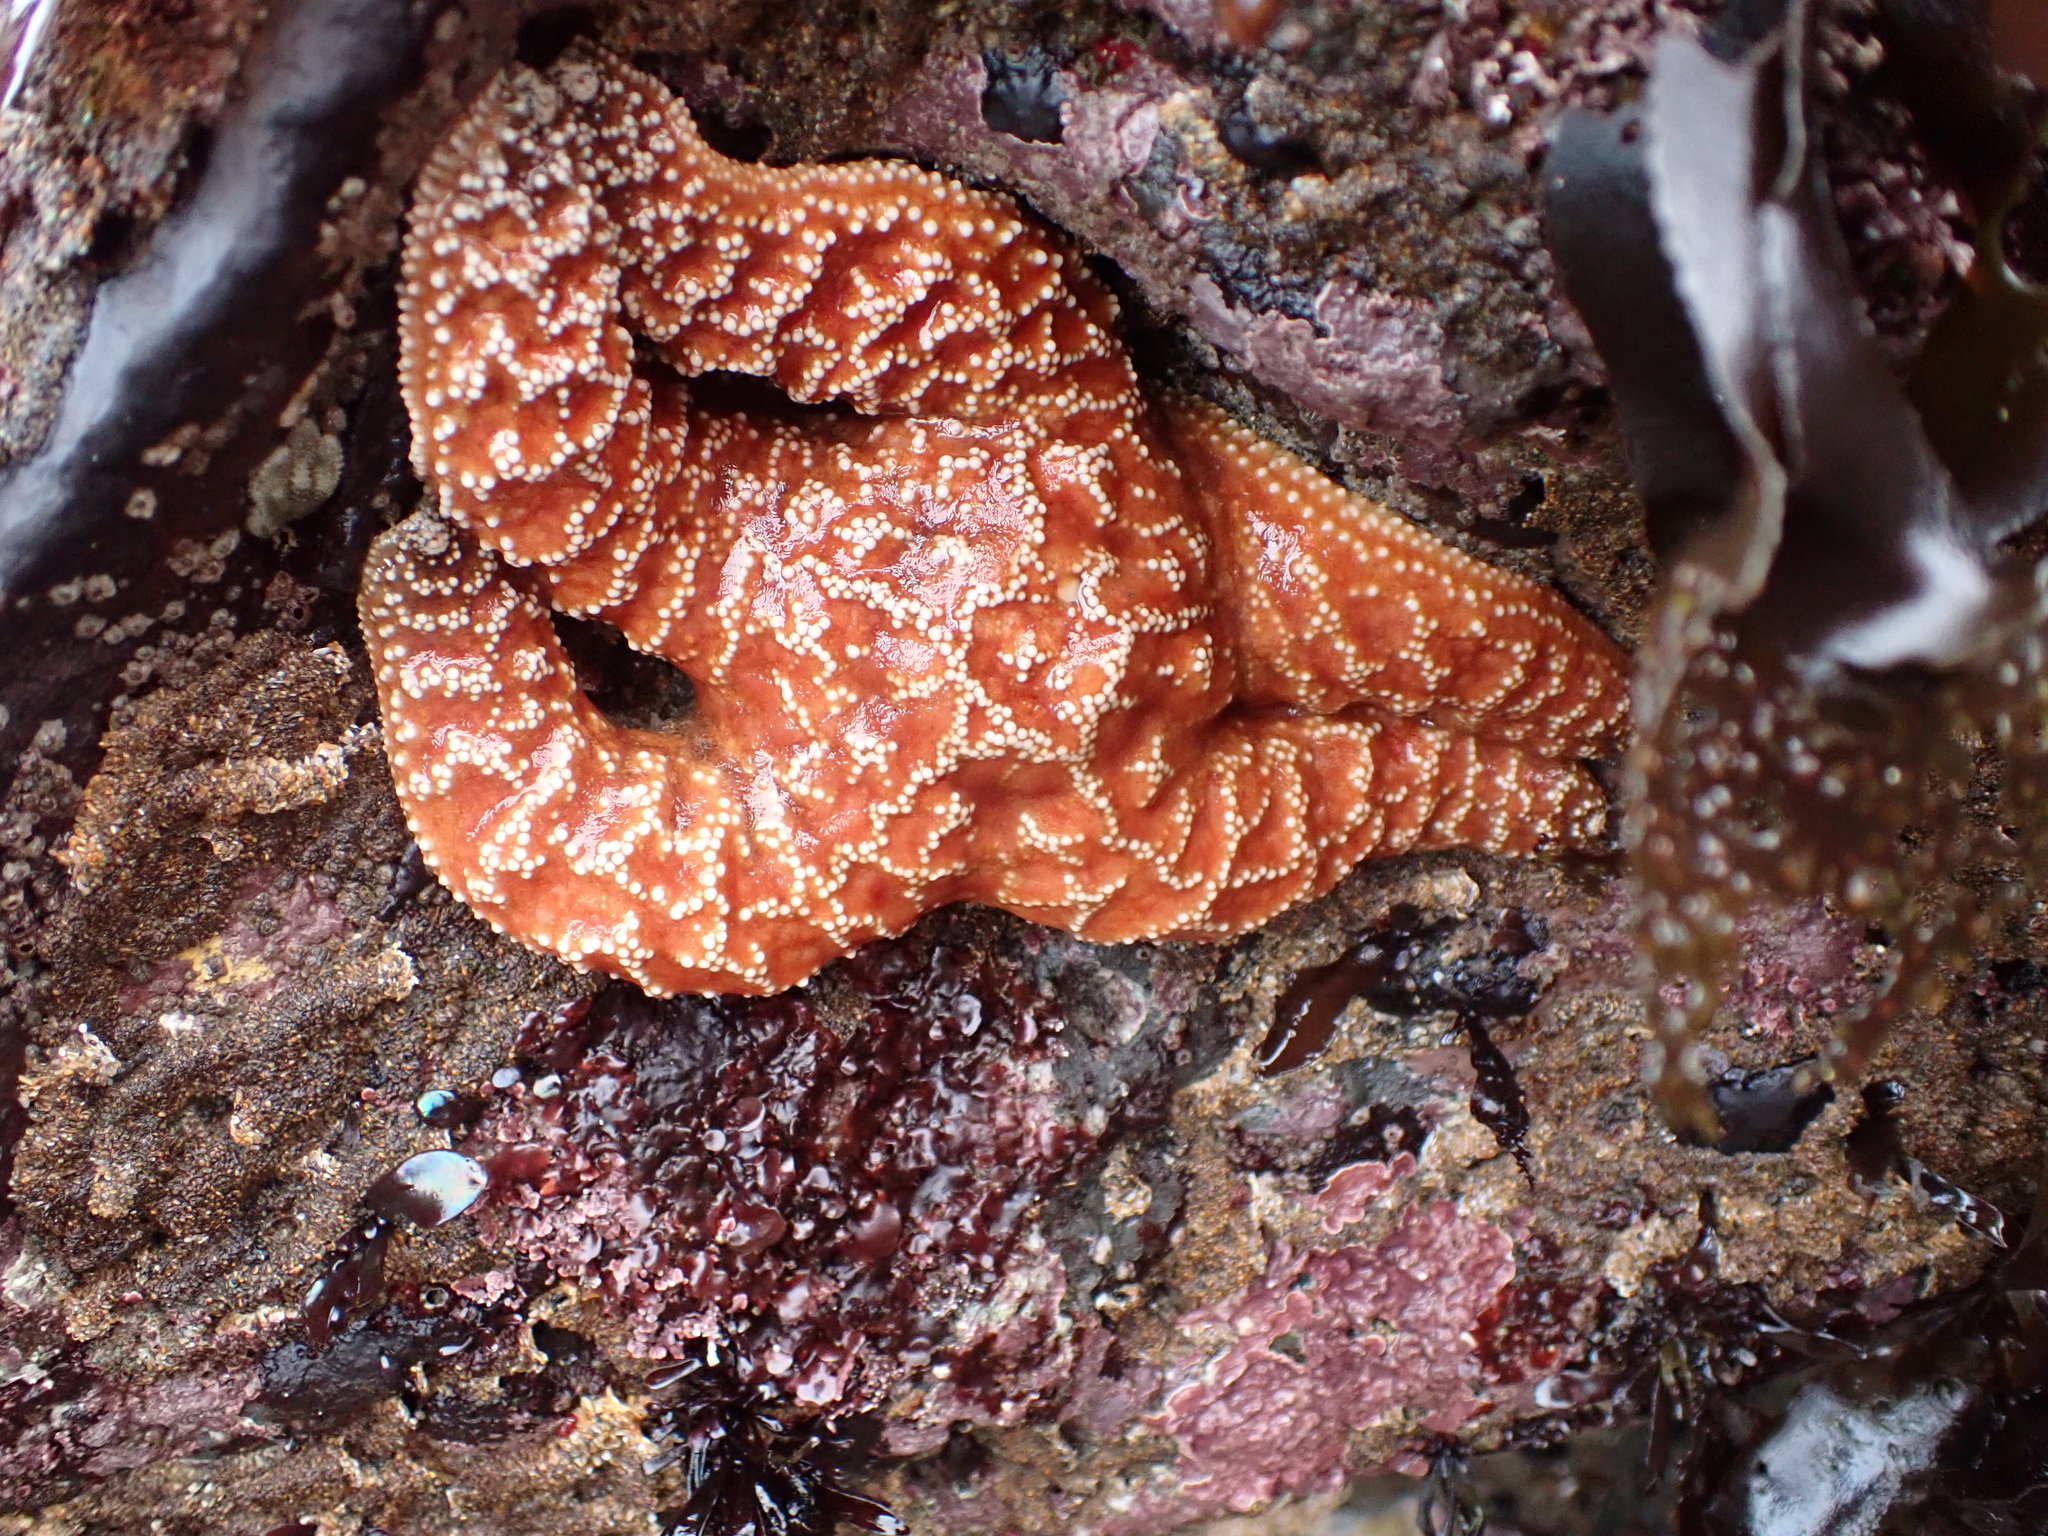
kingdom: Animalia
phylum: Echinodermata
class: Asteroidea
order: Forcipulatida
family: Asteriidae
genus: Pisaster
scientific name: Pisaster ochraceus
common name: Ochre stars
